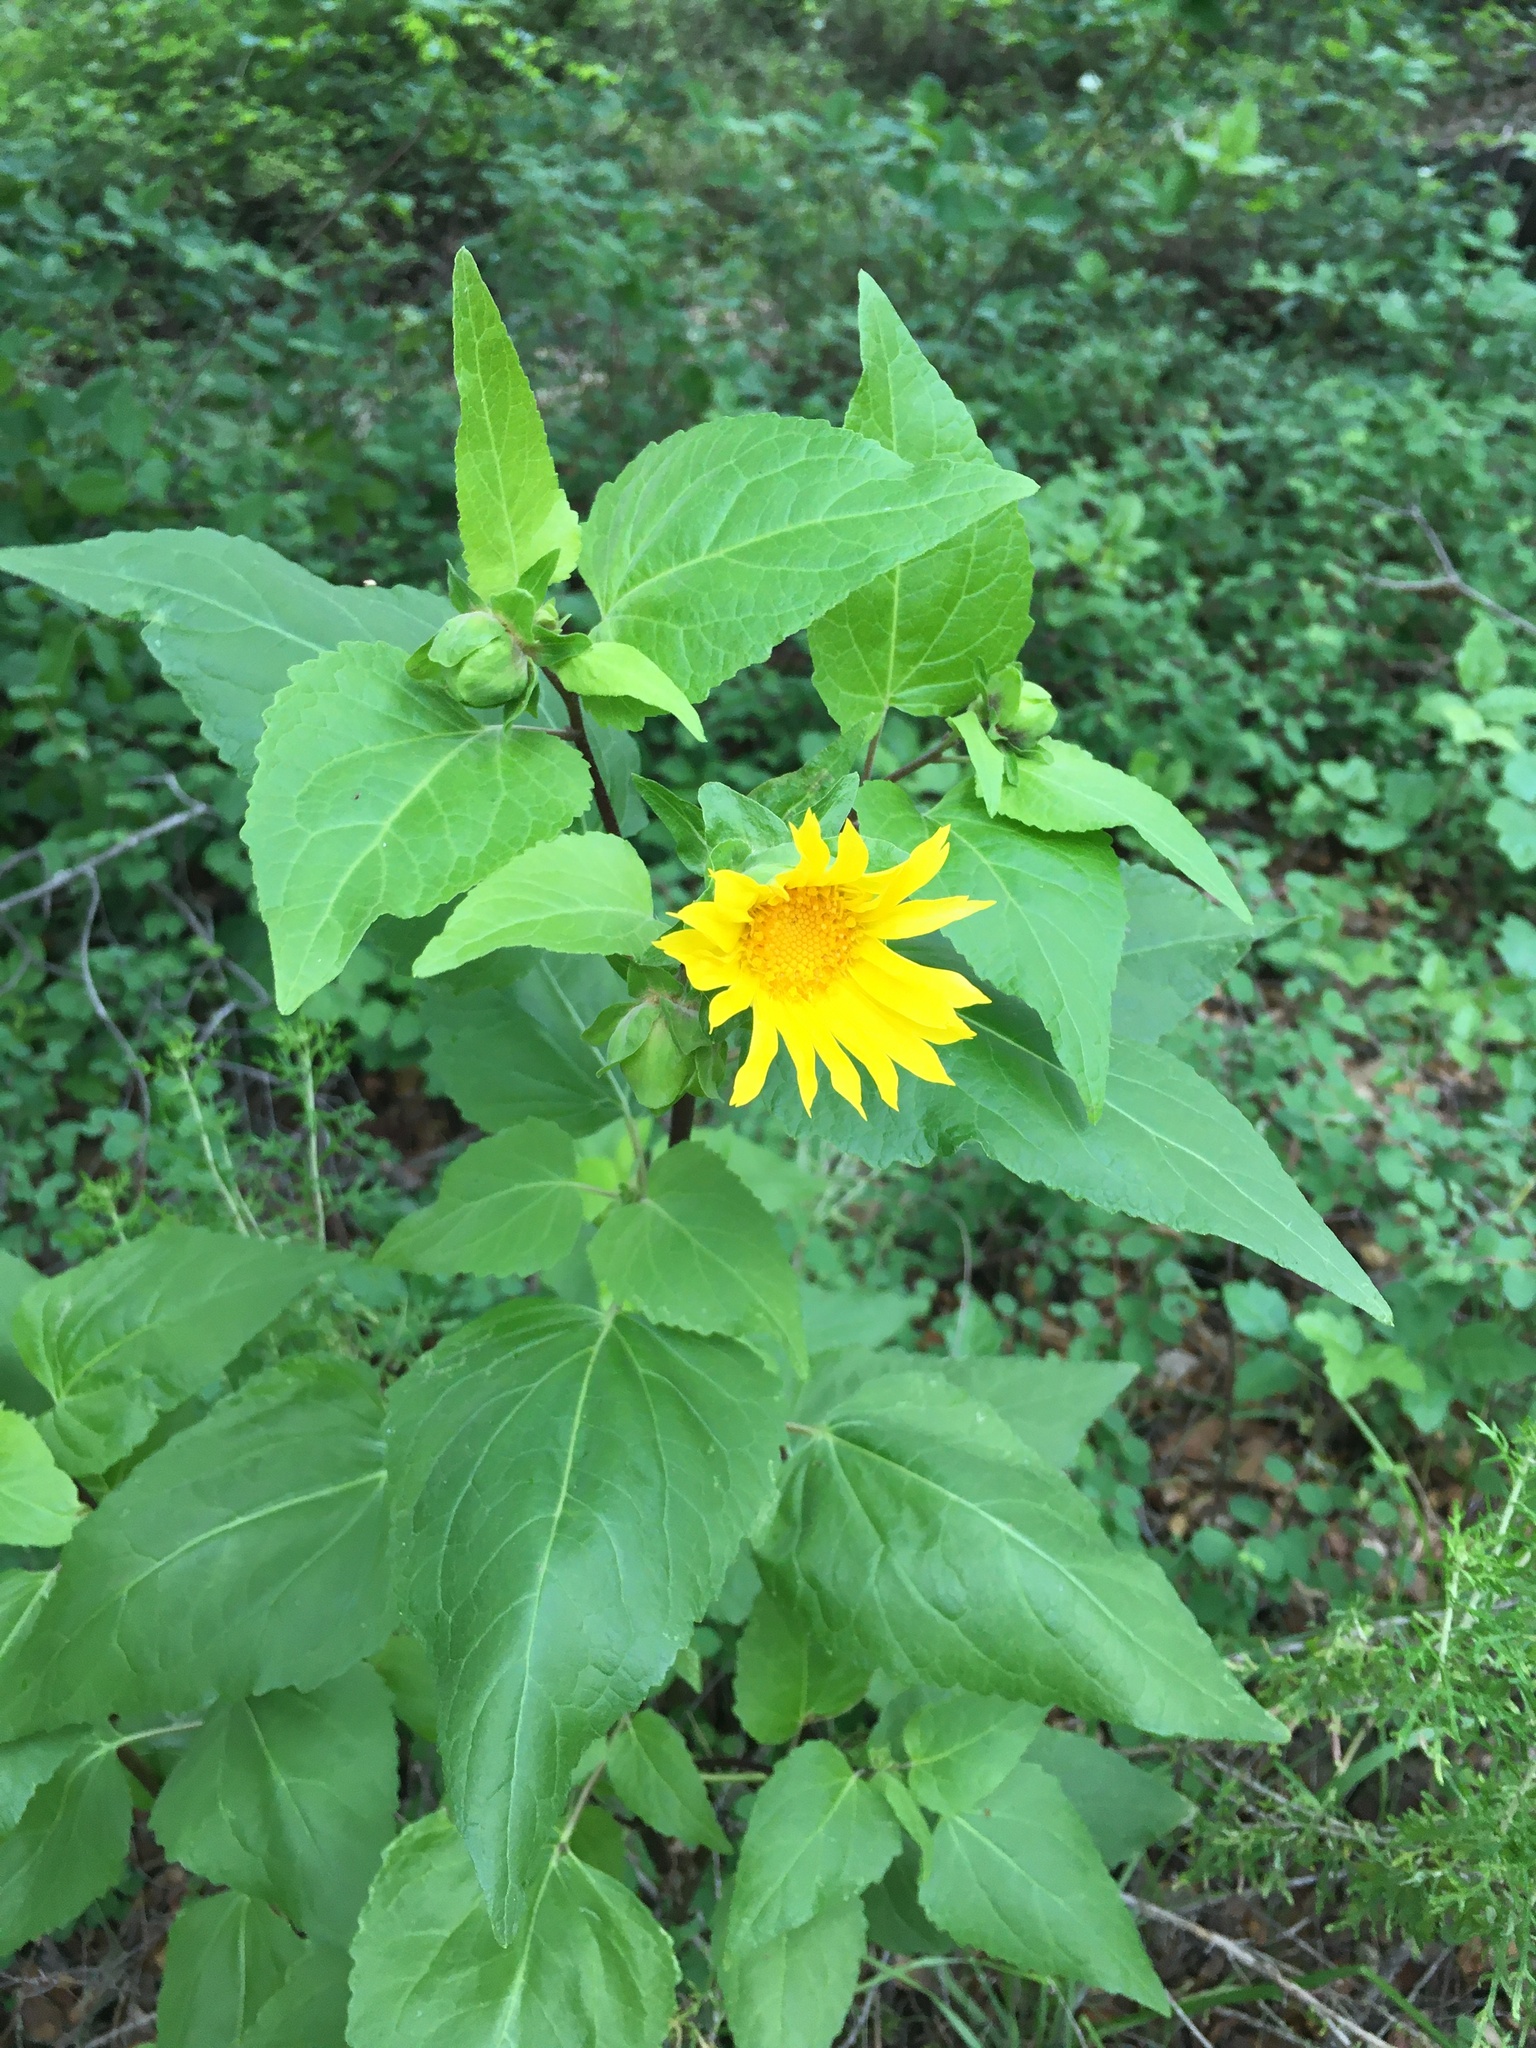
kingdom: Plantae
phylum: Tracheophyta
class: Magnoliopsida
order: Asterales
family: Asteraceae
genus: Venegasia
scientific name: Venegasia carpesioides
